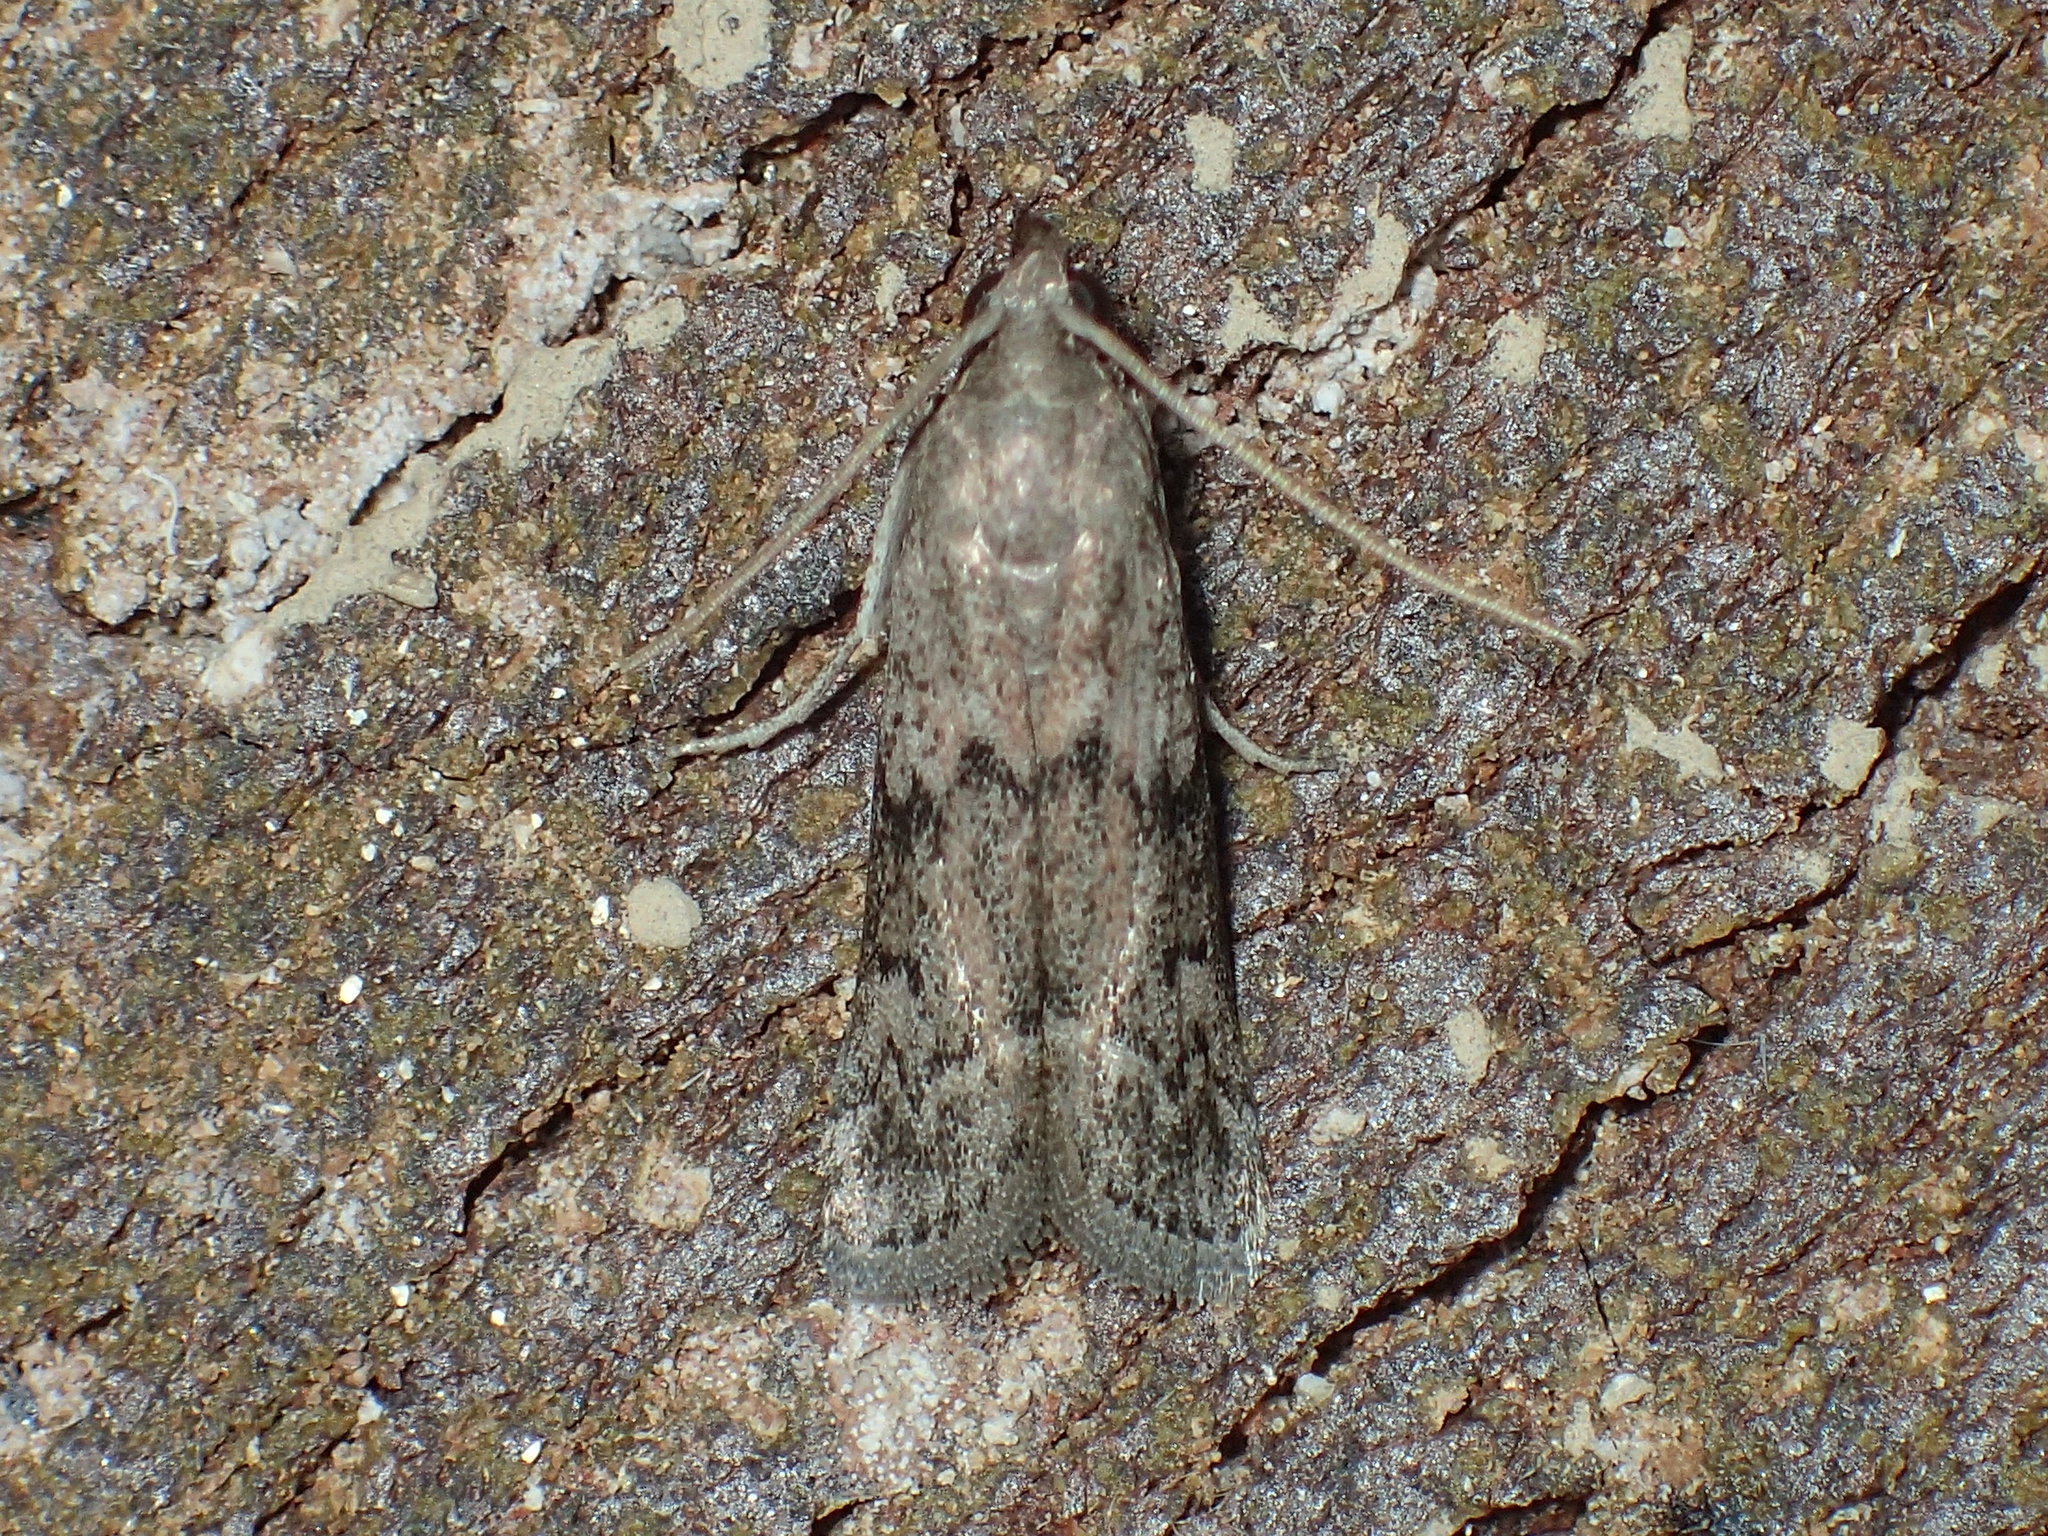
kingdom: Animalia
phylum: Arthropoda
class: Insecta
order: Lepidoptera
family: Pyralidae
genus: Vitula
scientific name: Vitula edmandsii
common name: Dried fruit moth
